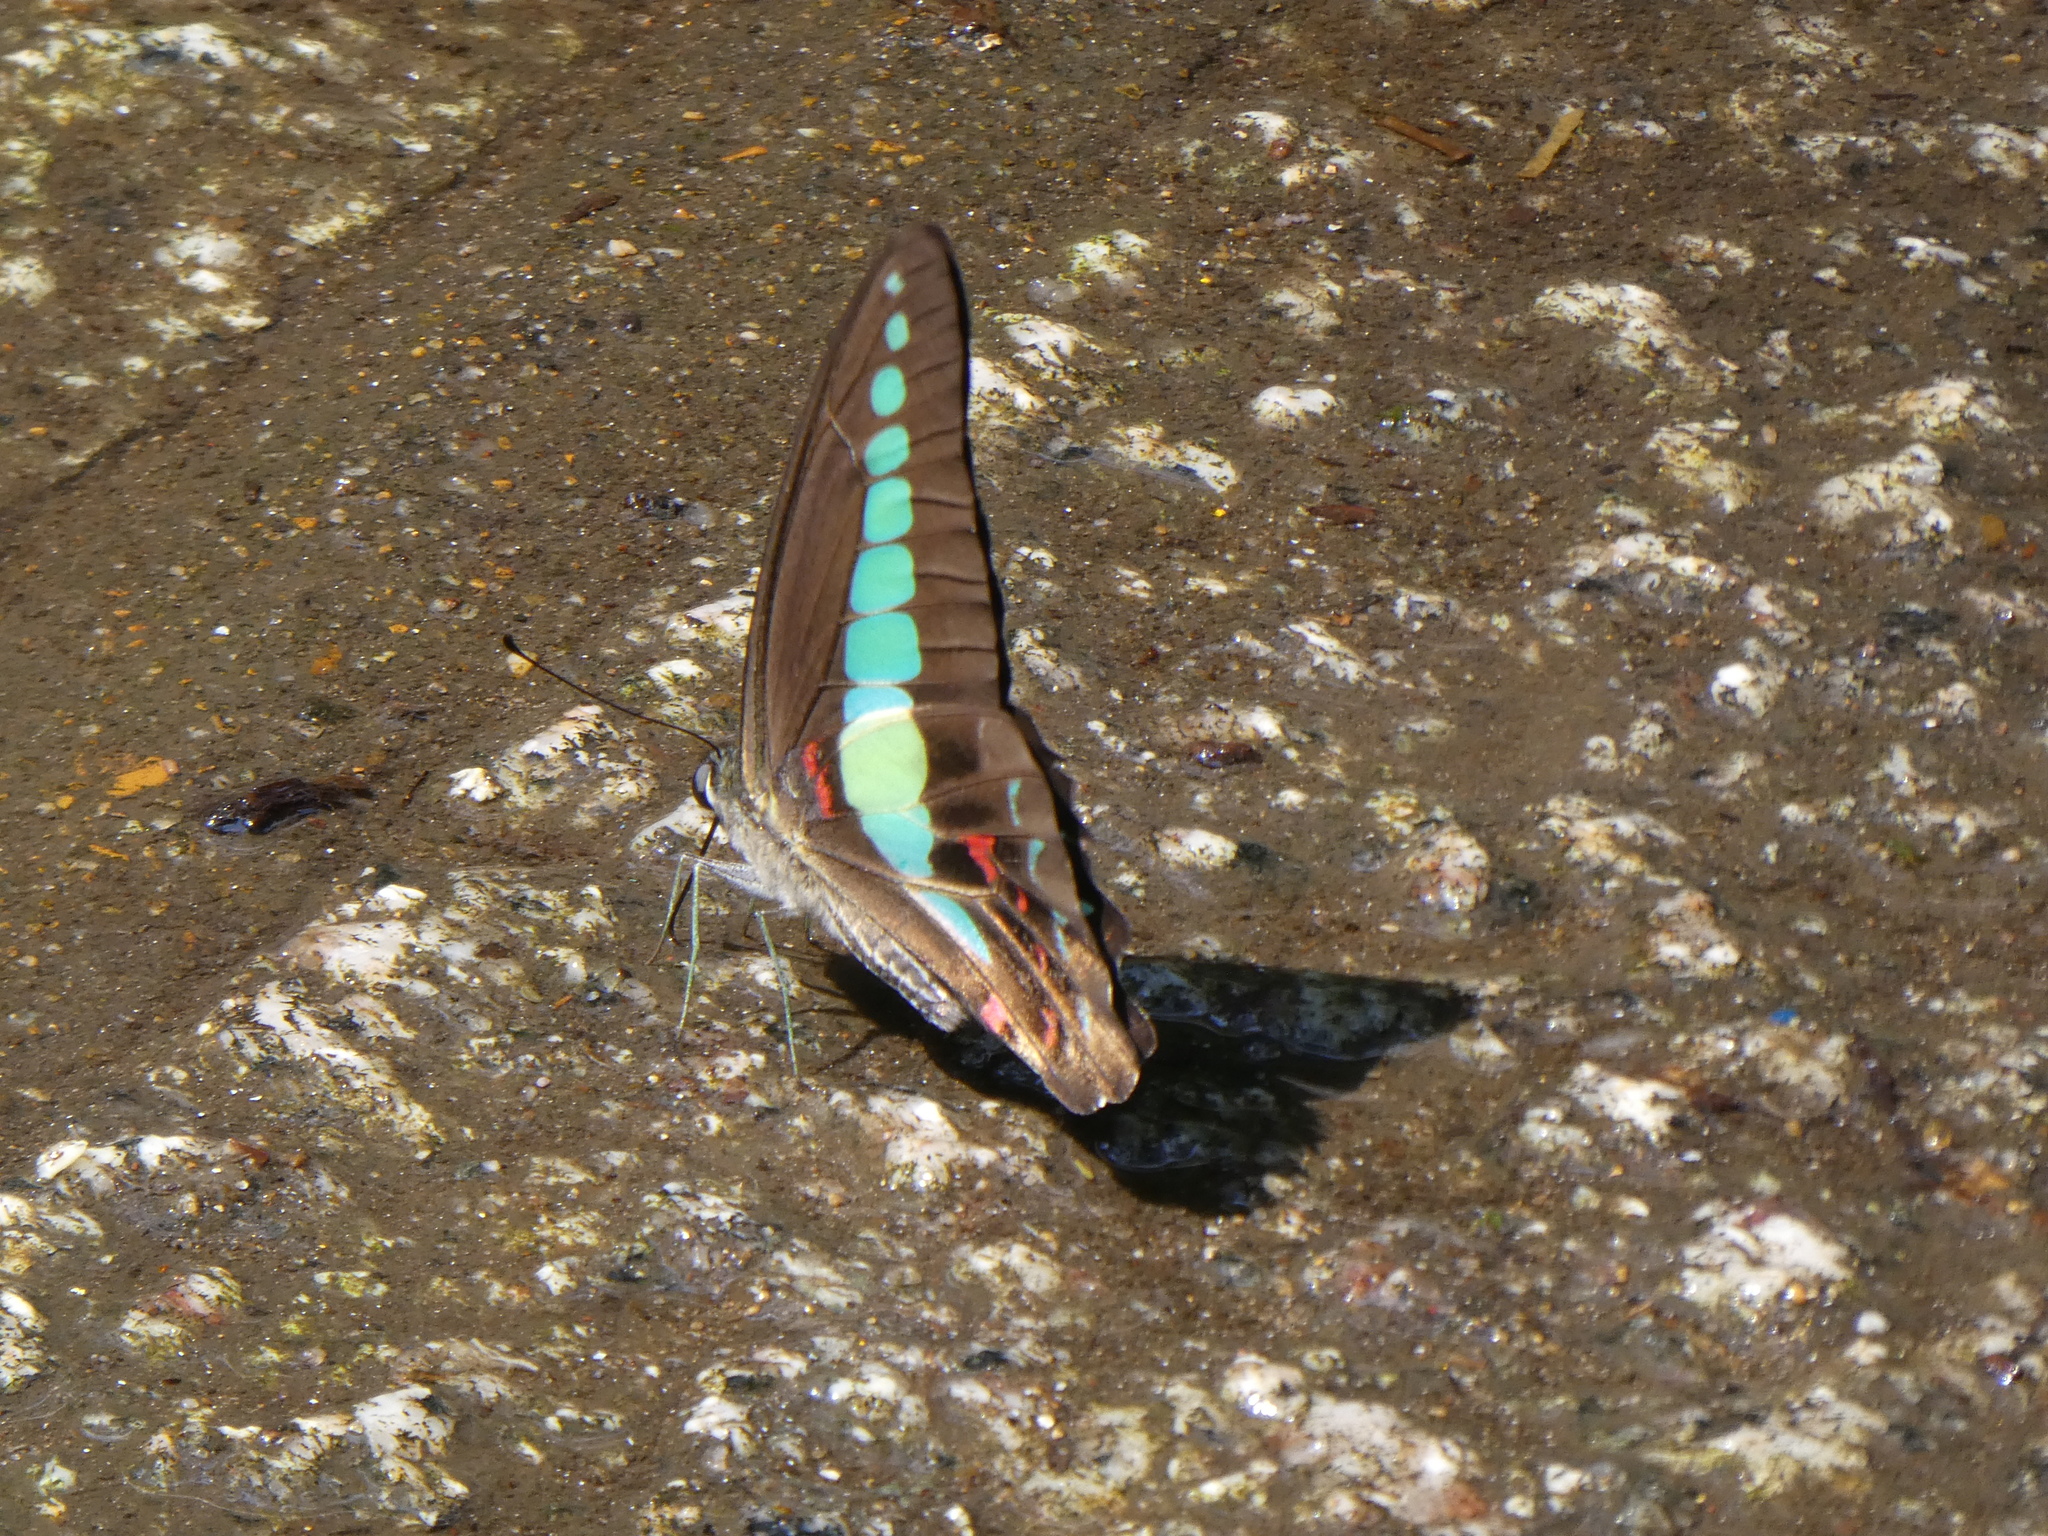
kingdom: Fungi
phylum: Ascomycota
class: Sordariomycetes
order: Microascales
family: Microascaceae
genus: Graphium
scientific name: Graphium sarpedon
